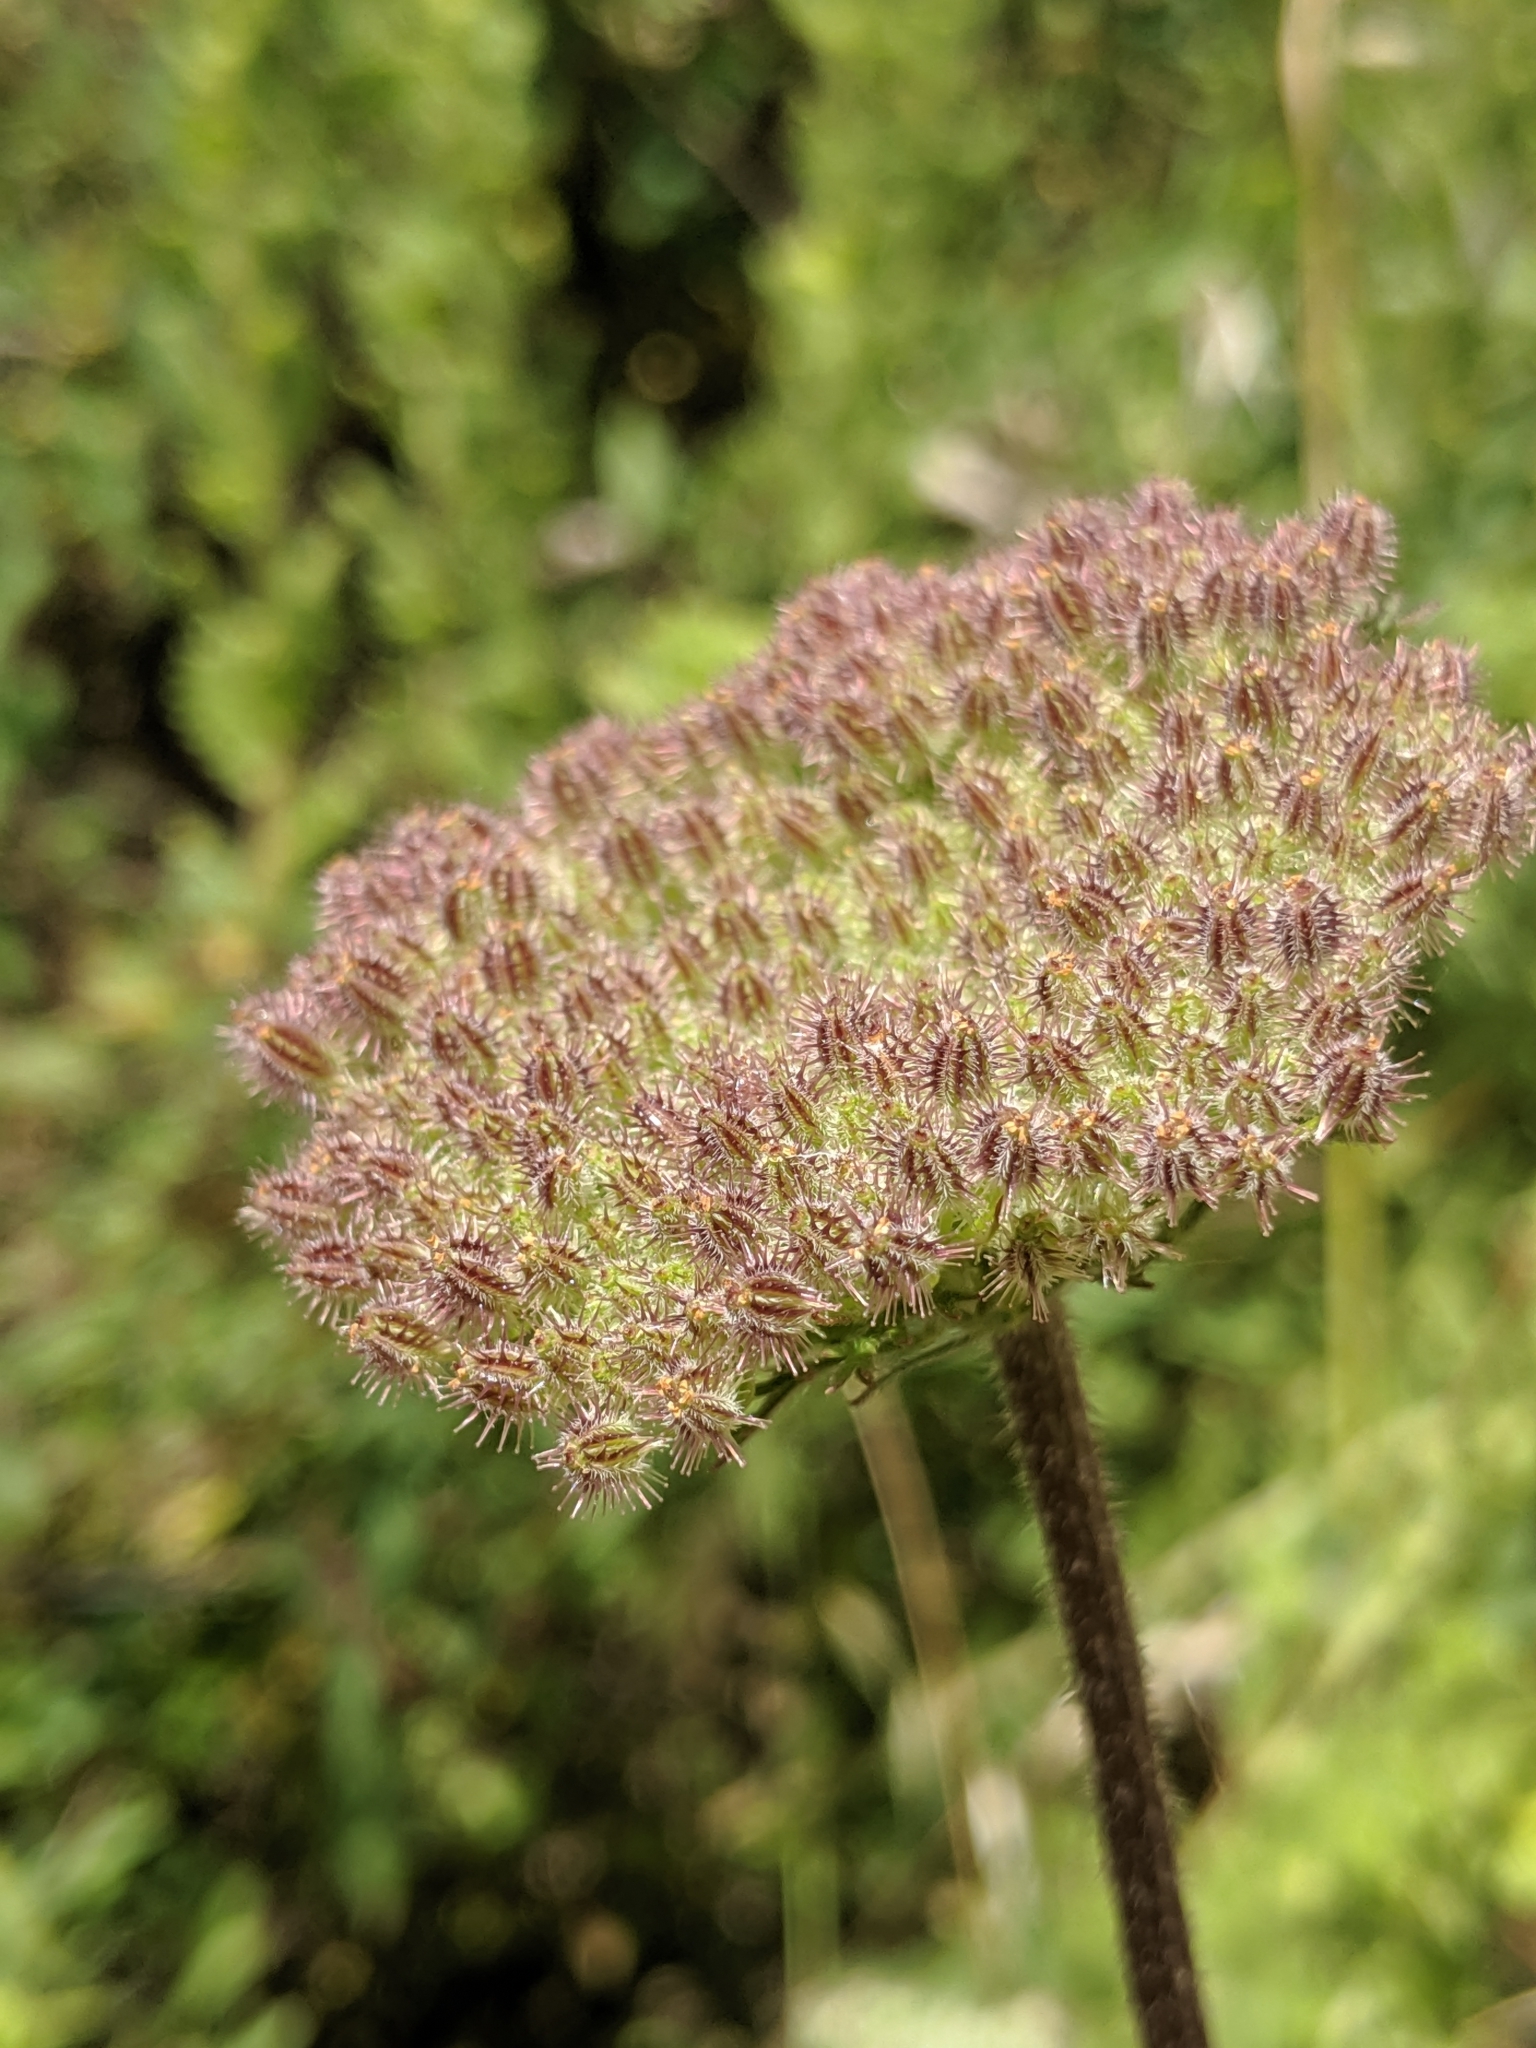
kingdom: Plantae
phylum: Tracheophyta
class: Magnoliopsida
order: Apiales
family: Apiaceae
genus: Daucus
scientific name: Daucus pusillus
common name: Southwest wild carrot
